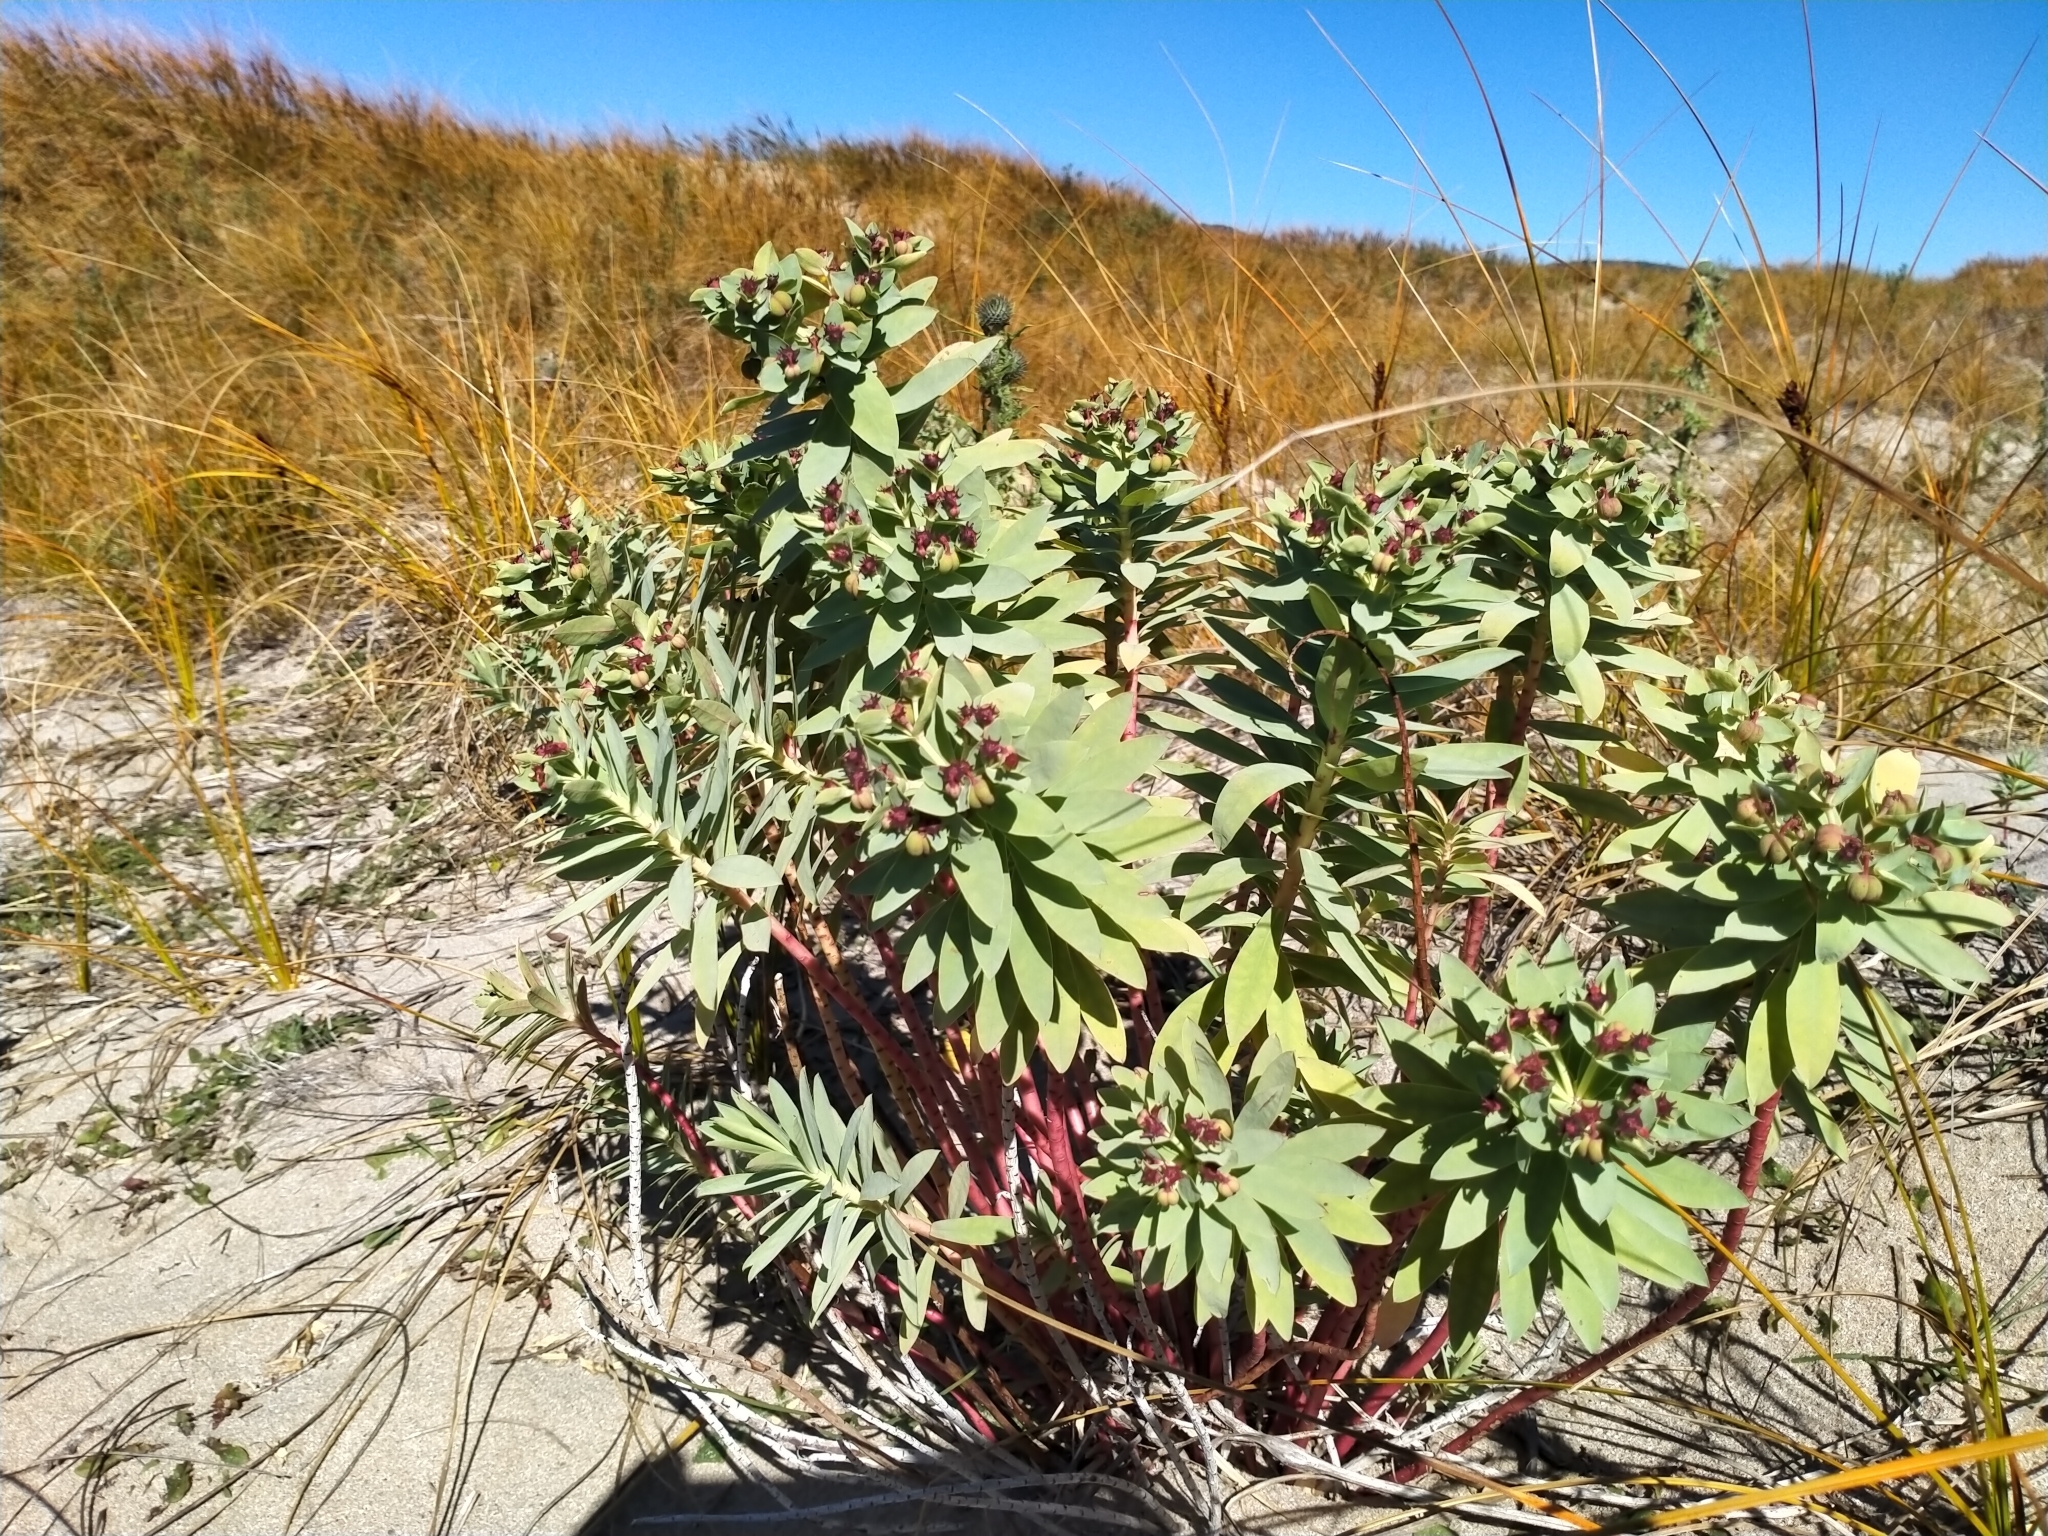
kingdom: Plantae
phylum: Tracheophyta
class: Magnoliopsida
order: Malpighiales
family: Euphorbiaceae
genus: Euphorbia
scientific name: Euphorbia glauca
